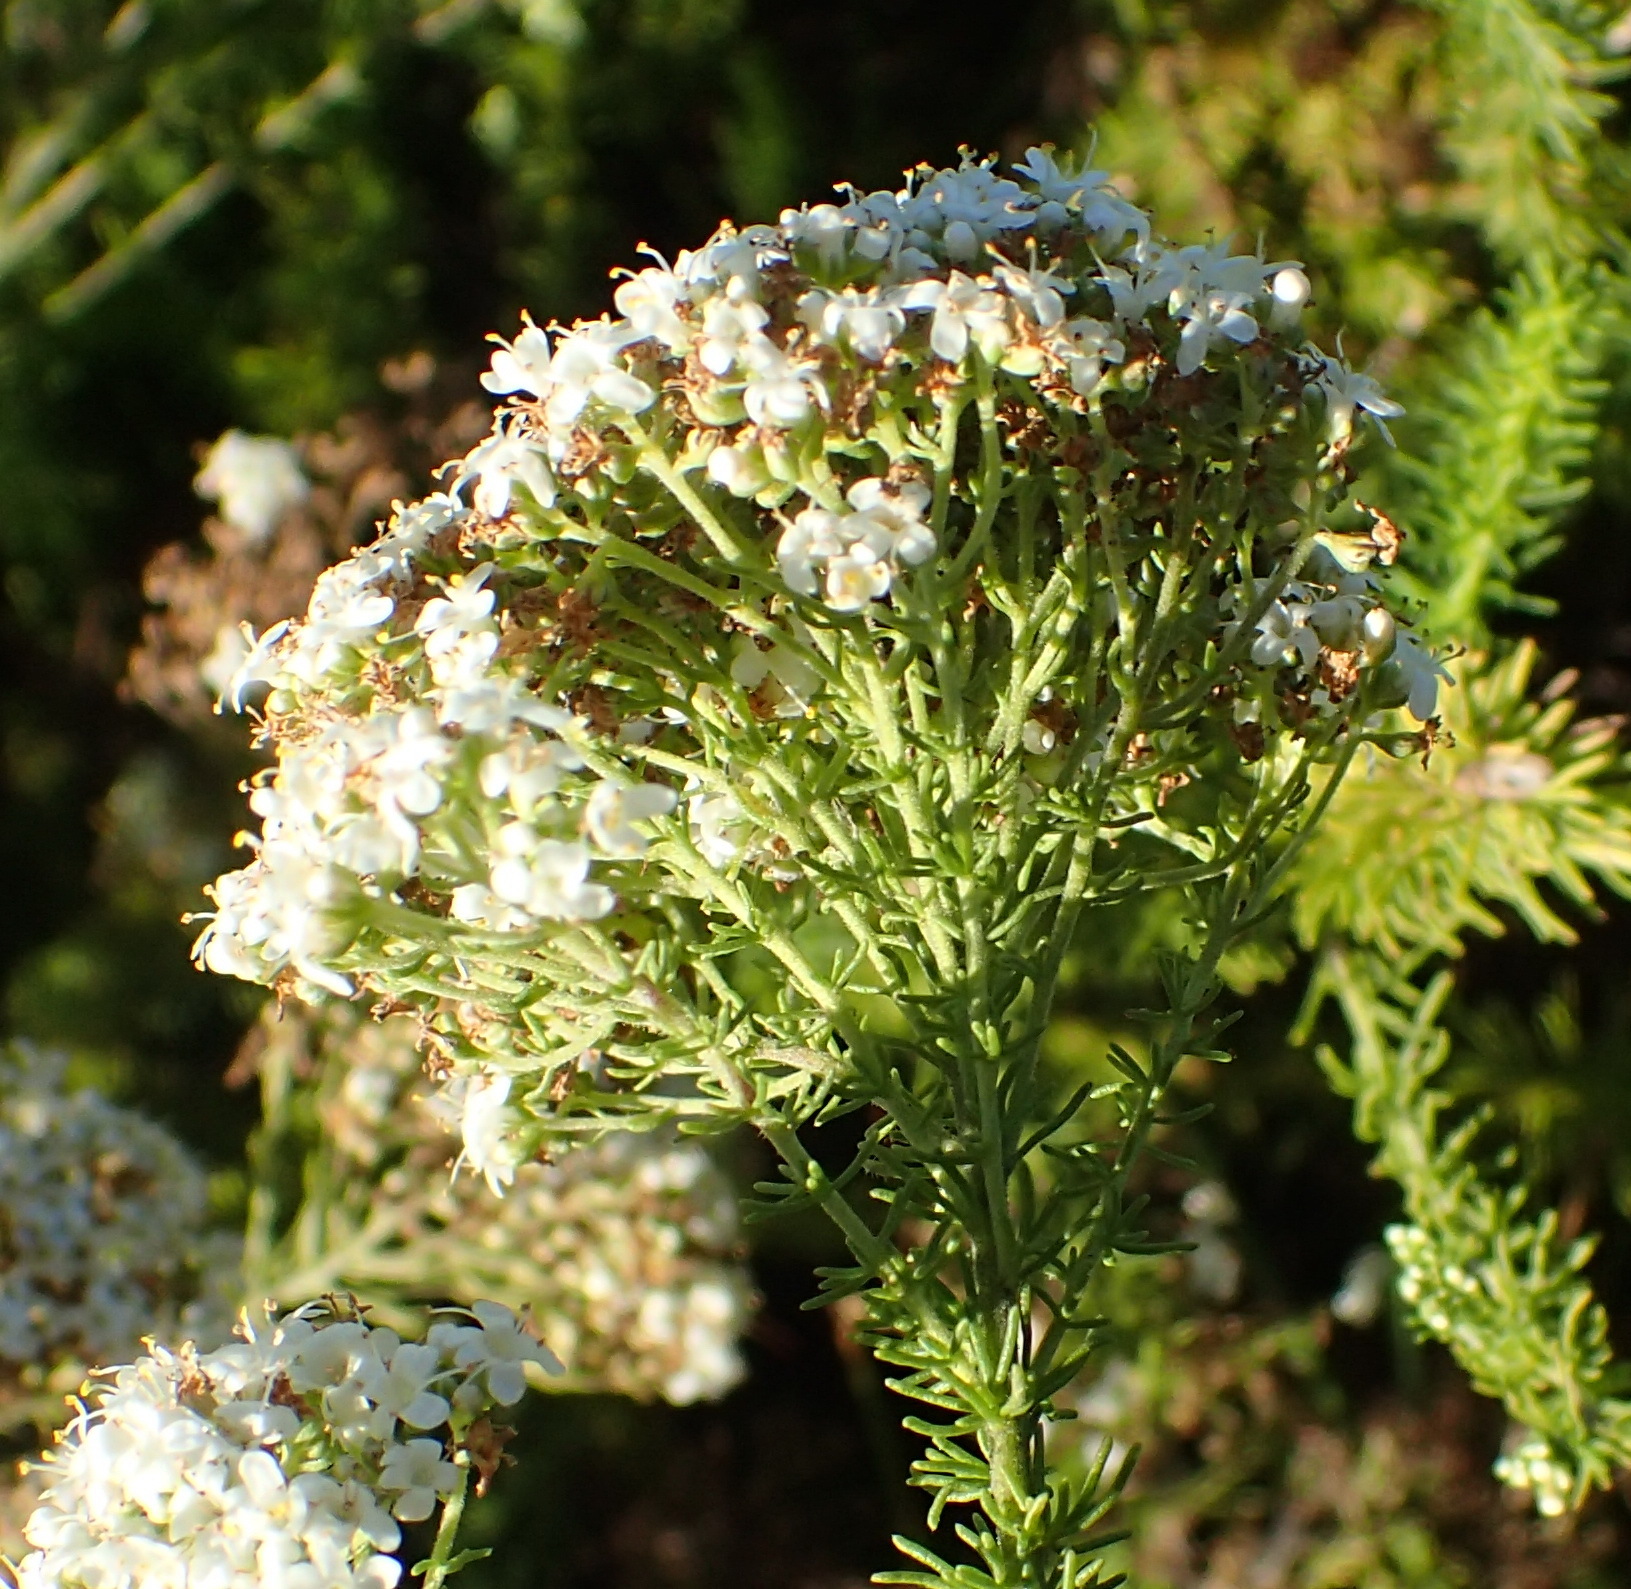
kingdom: Plantae
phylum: Tracheophyta
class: Magnoliopsida
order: Lamiales
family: Scrophulariaceae
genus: Selago
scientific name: Selago corymbosa
